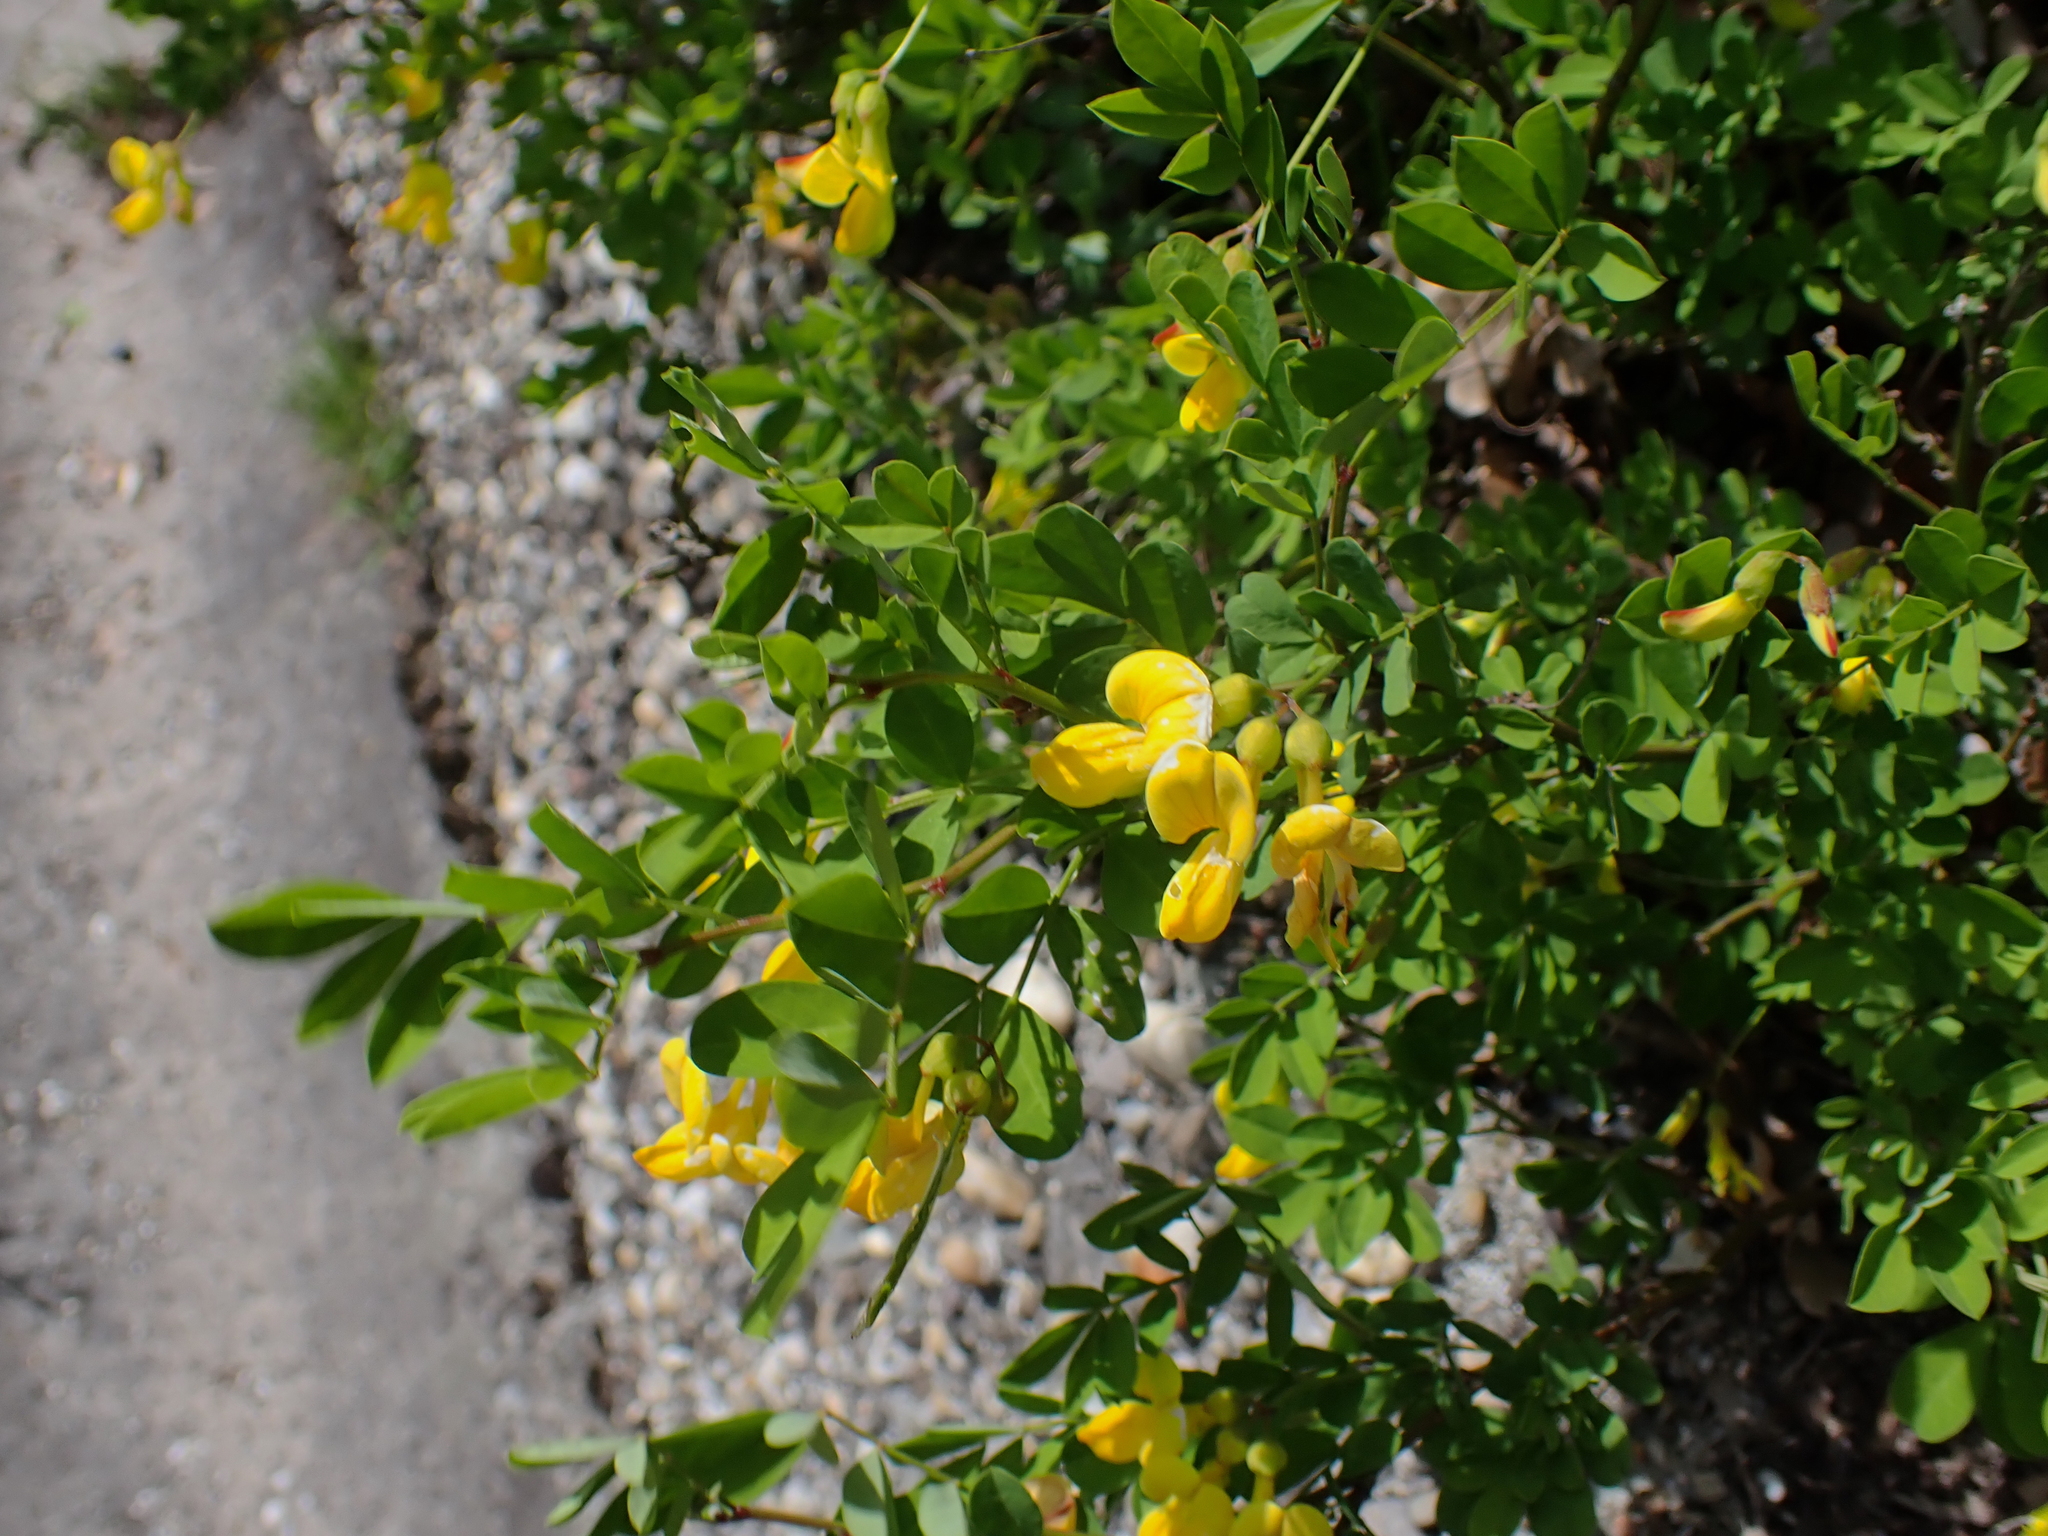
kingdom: Plantae
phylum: Tracheophyta
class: Magnoliopsida
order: Fabales
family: Fabaceae
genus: Hippocrepis
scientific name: Hippocrepis emerus
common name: Scorpion senna
